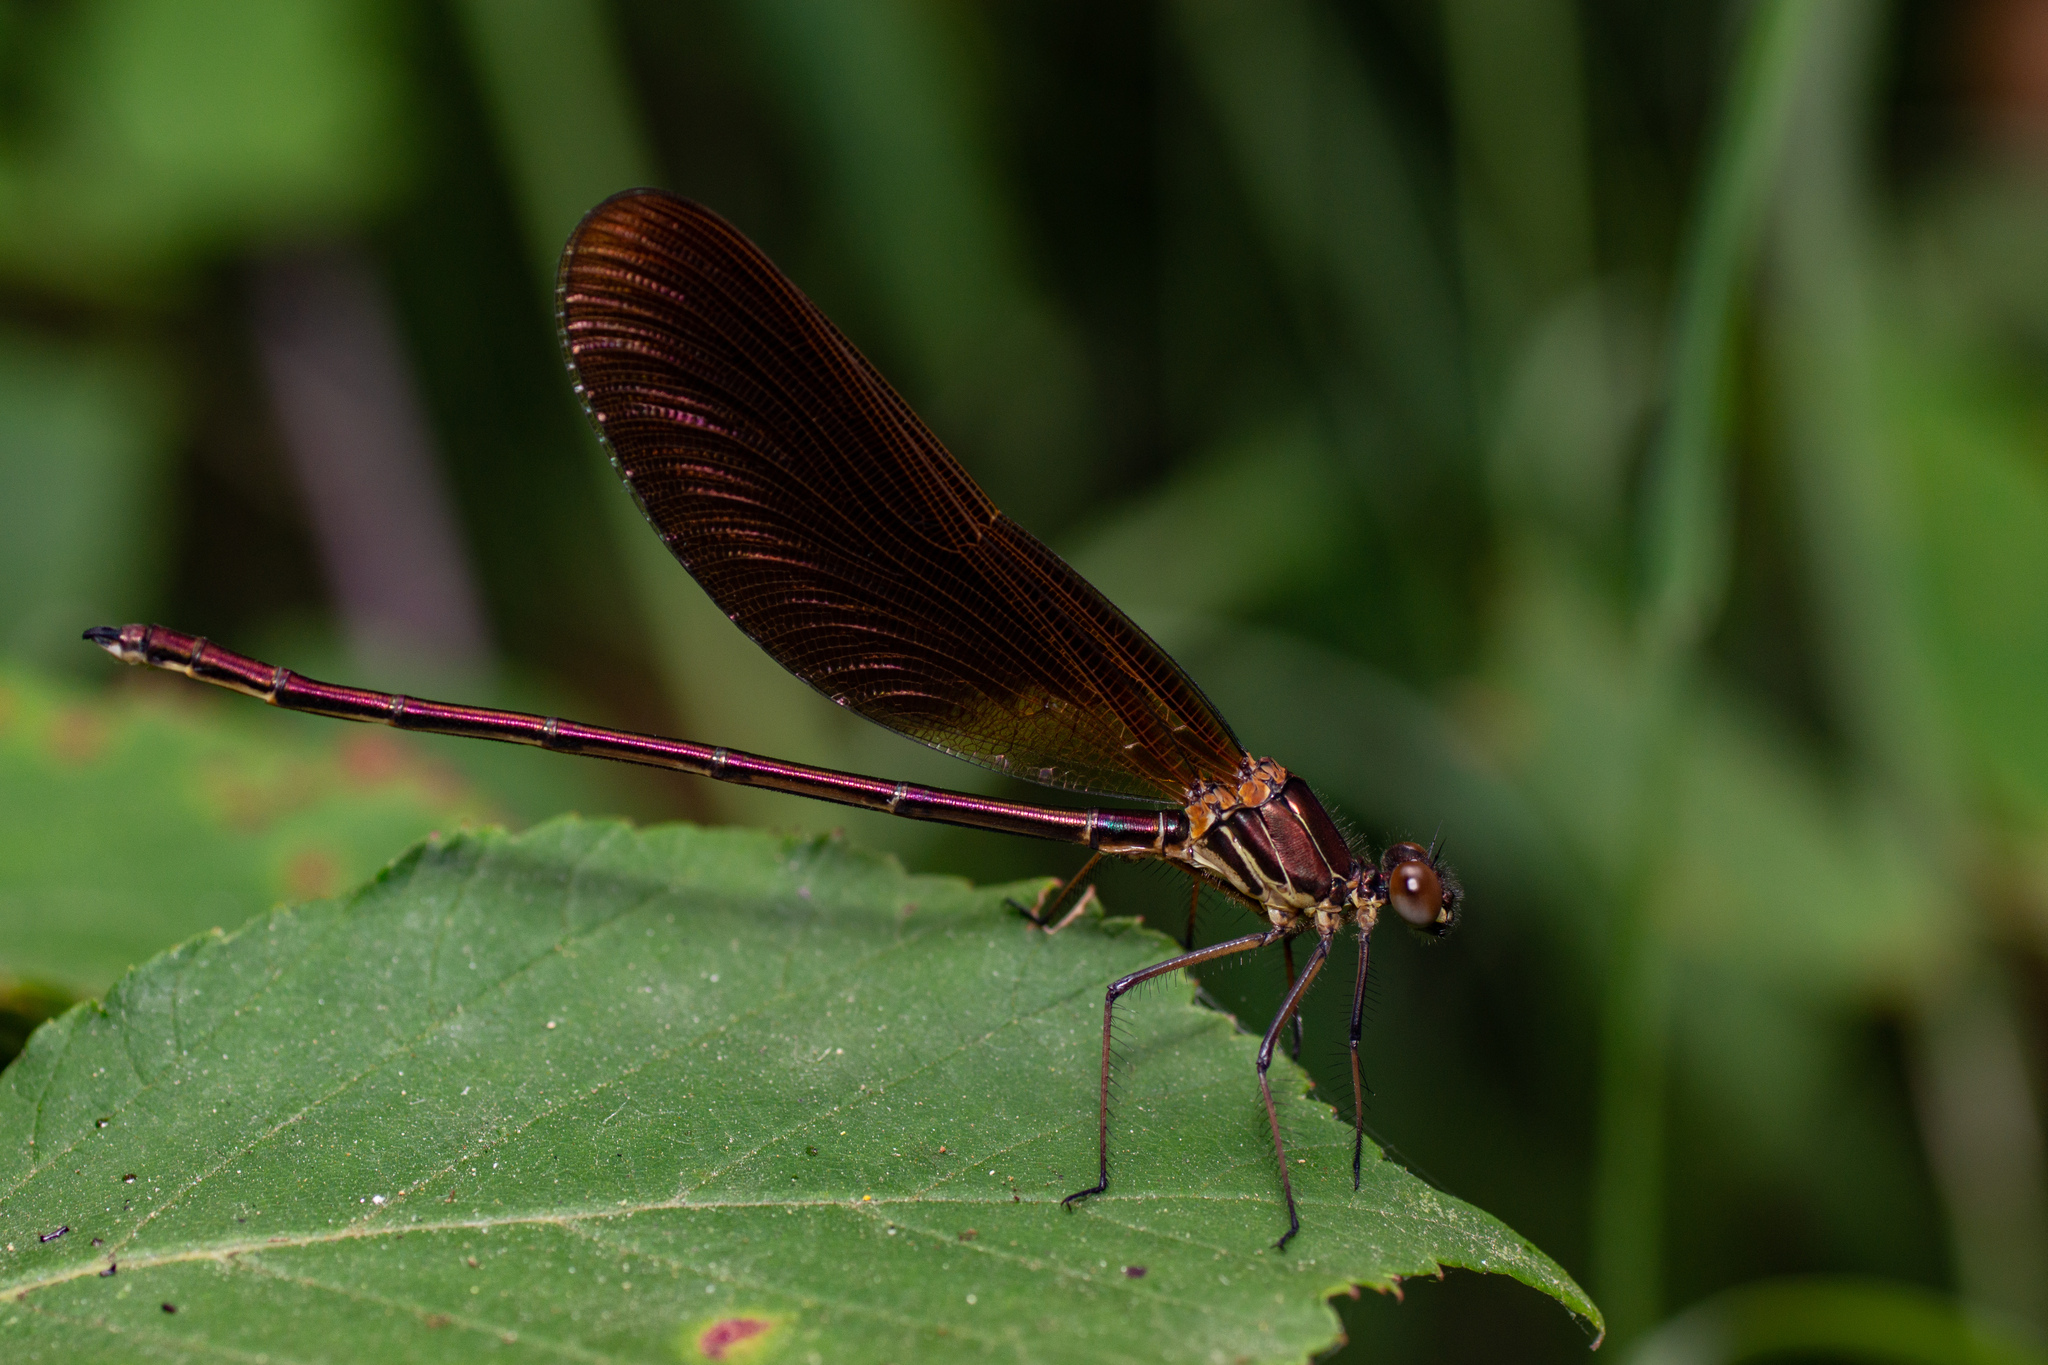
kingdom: Animalia
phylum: Arthropoda
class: Insecta
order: Odonata
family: Calopterygidae
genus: Calopteryx
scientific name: Calopteryx haemorrhoidalis
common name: Copper demoiselle
